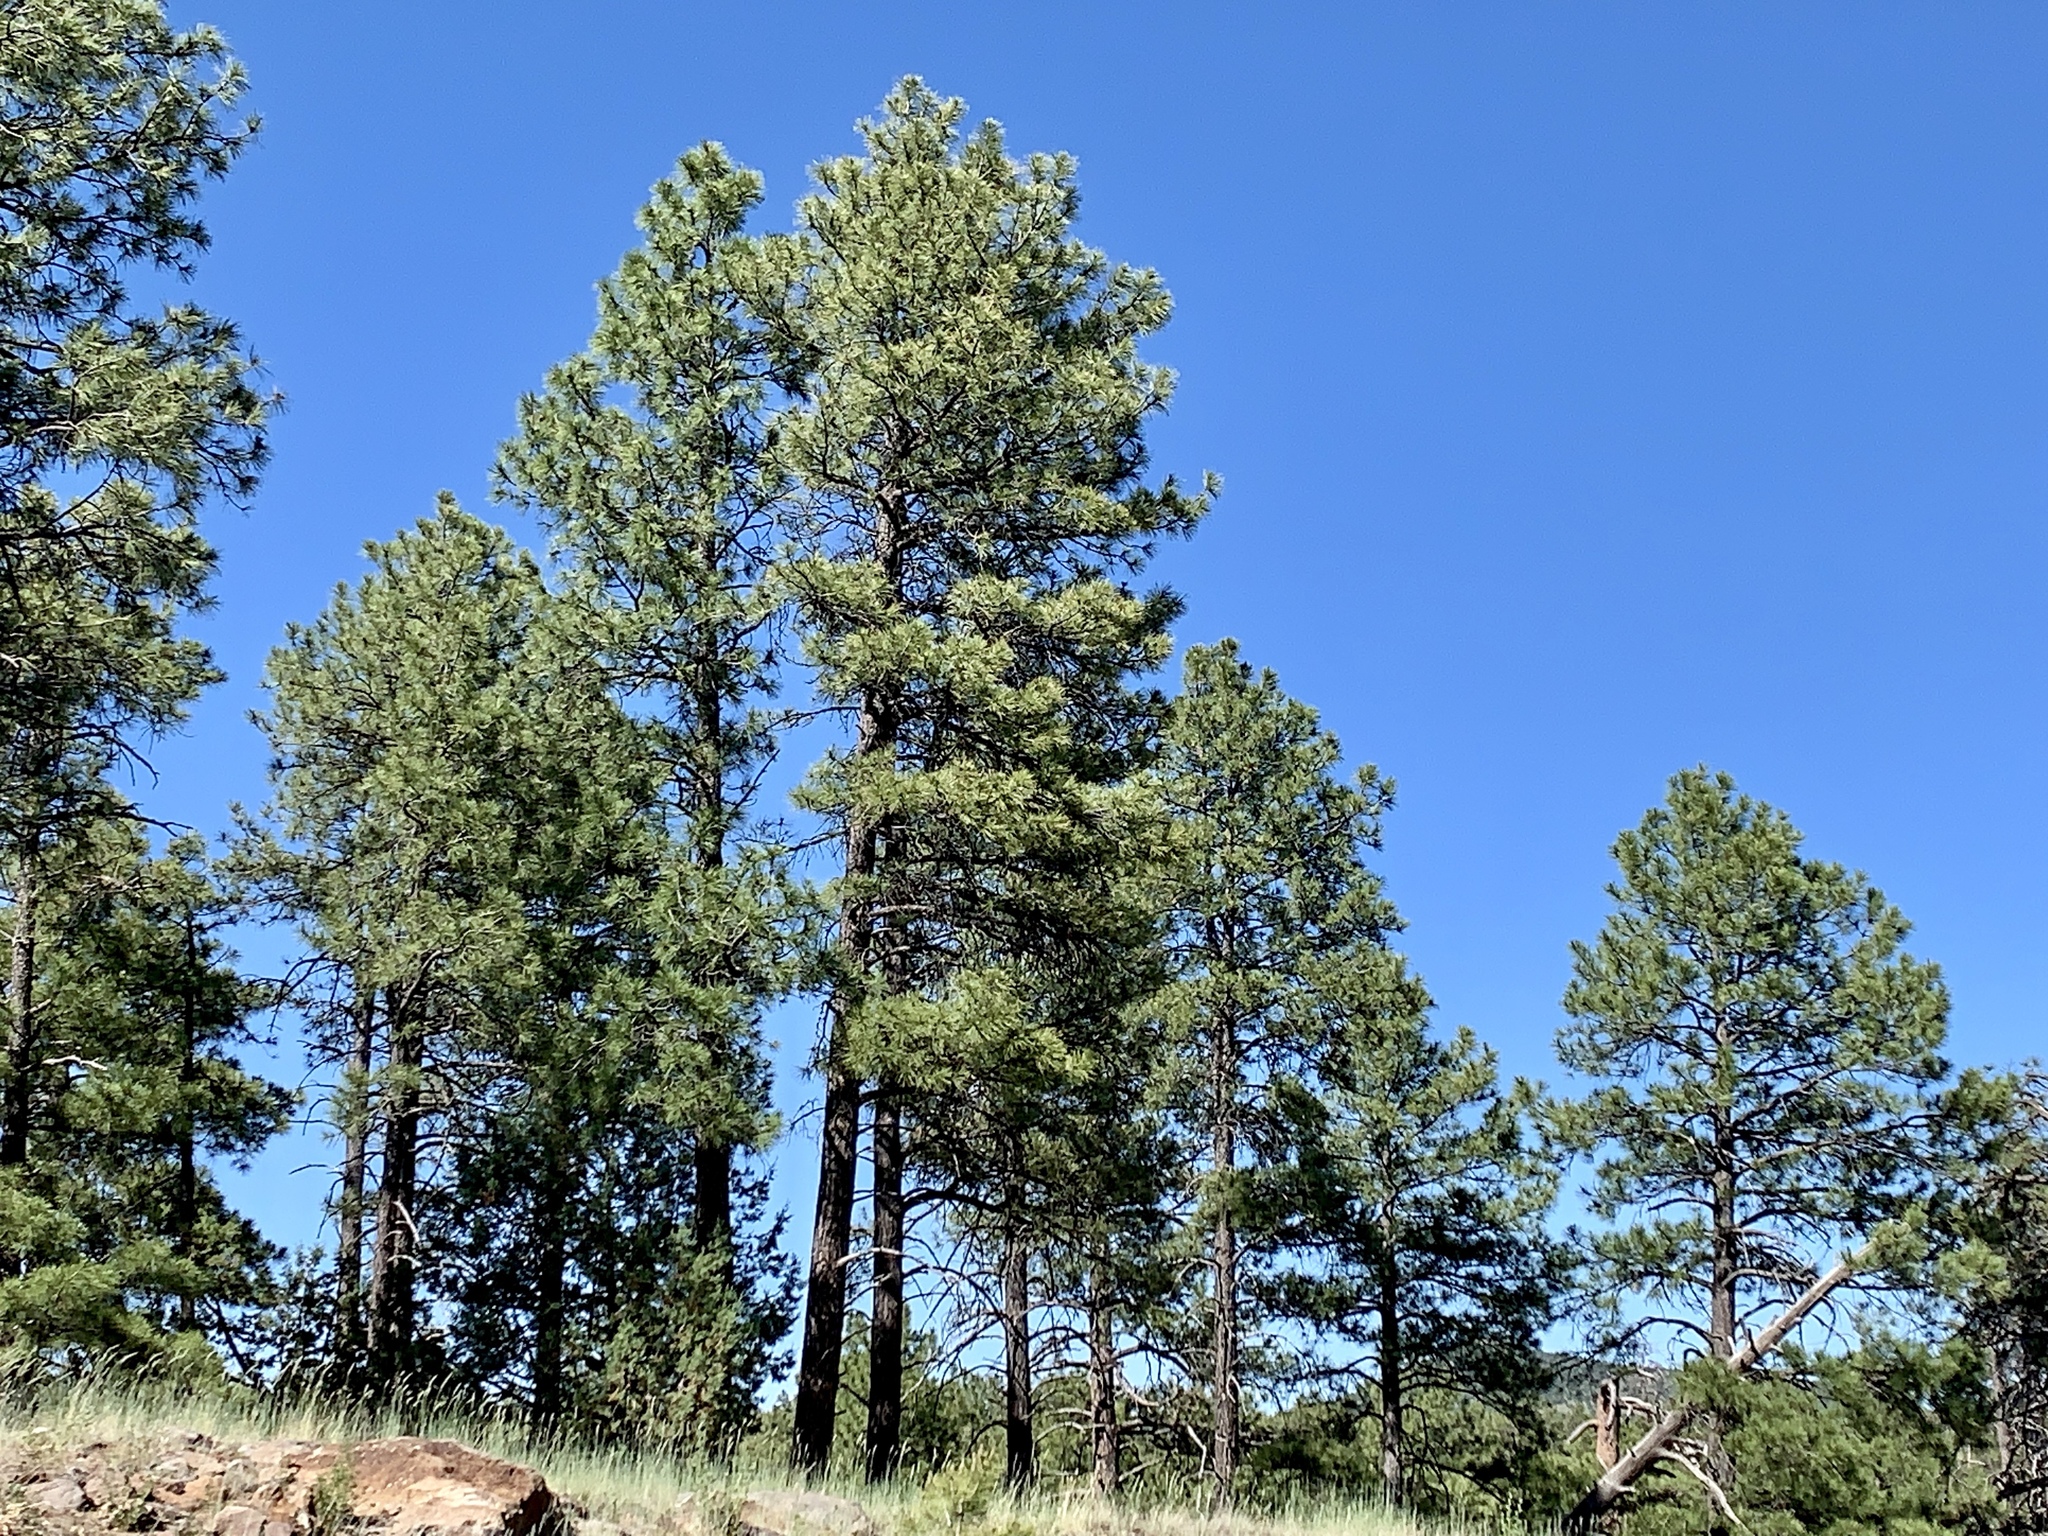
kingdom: Plantae
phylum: Tracheophyta
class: Pinopsida
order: Pinales
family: Pinaceae
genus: Pinus
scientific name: Pinus ponderosa
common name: Western yellow-pine
